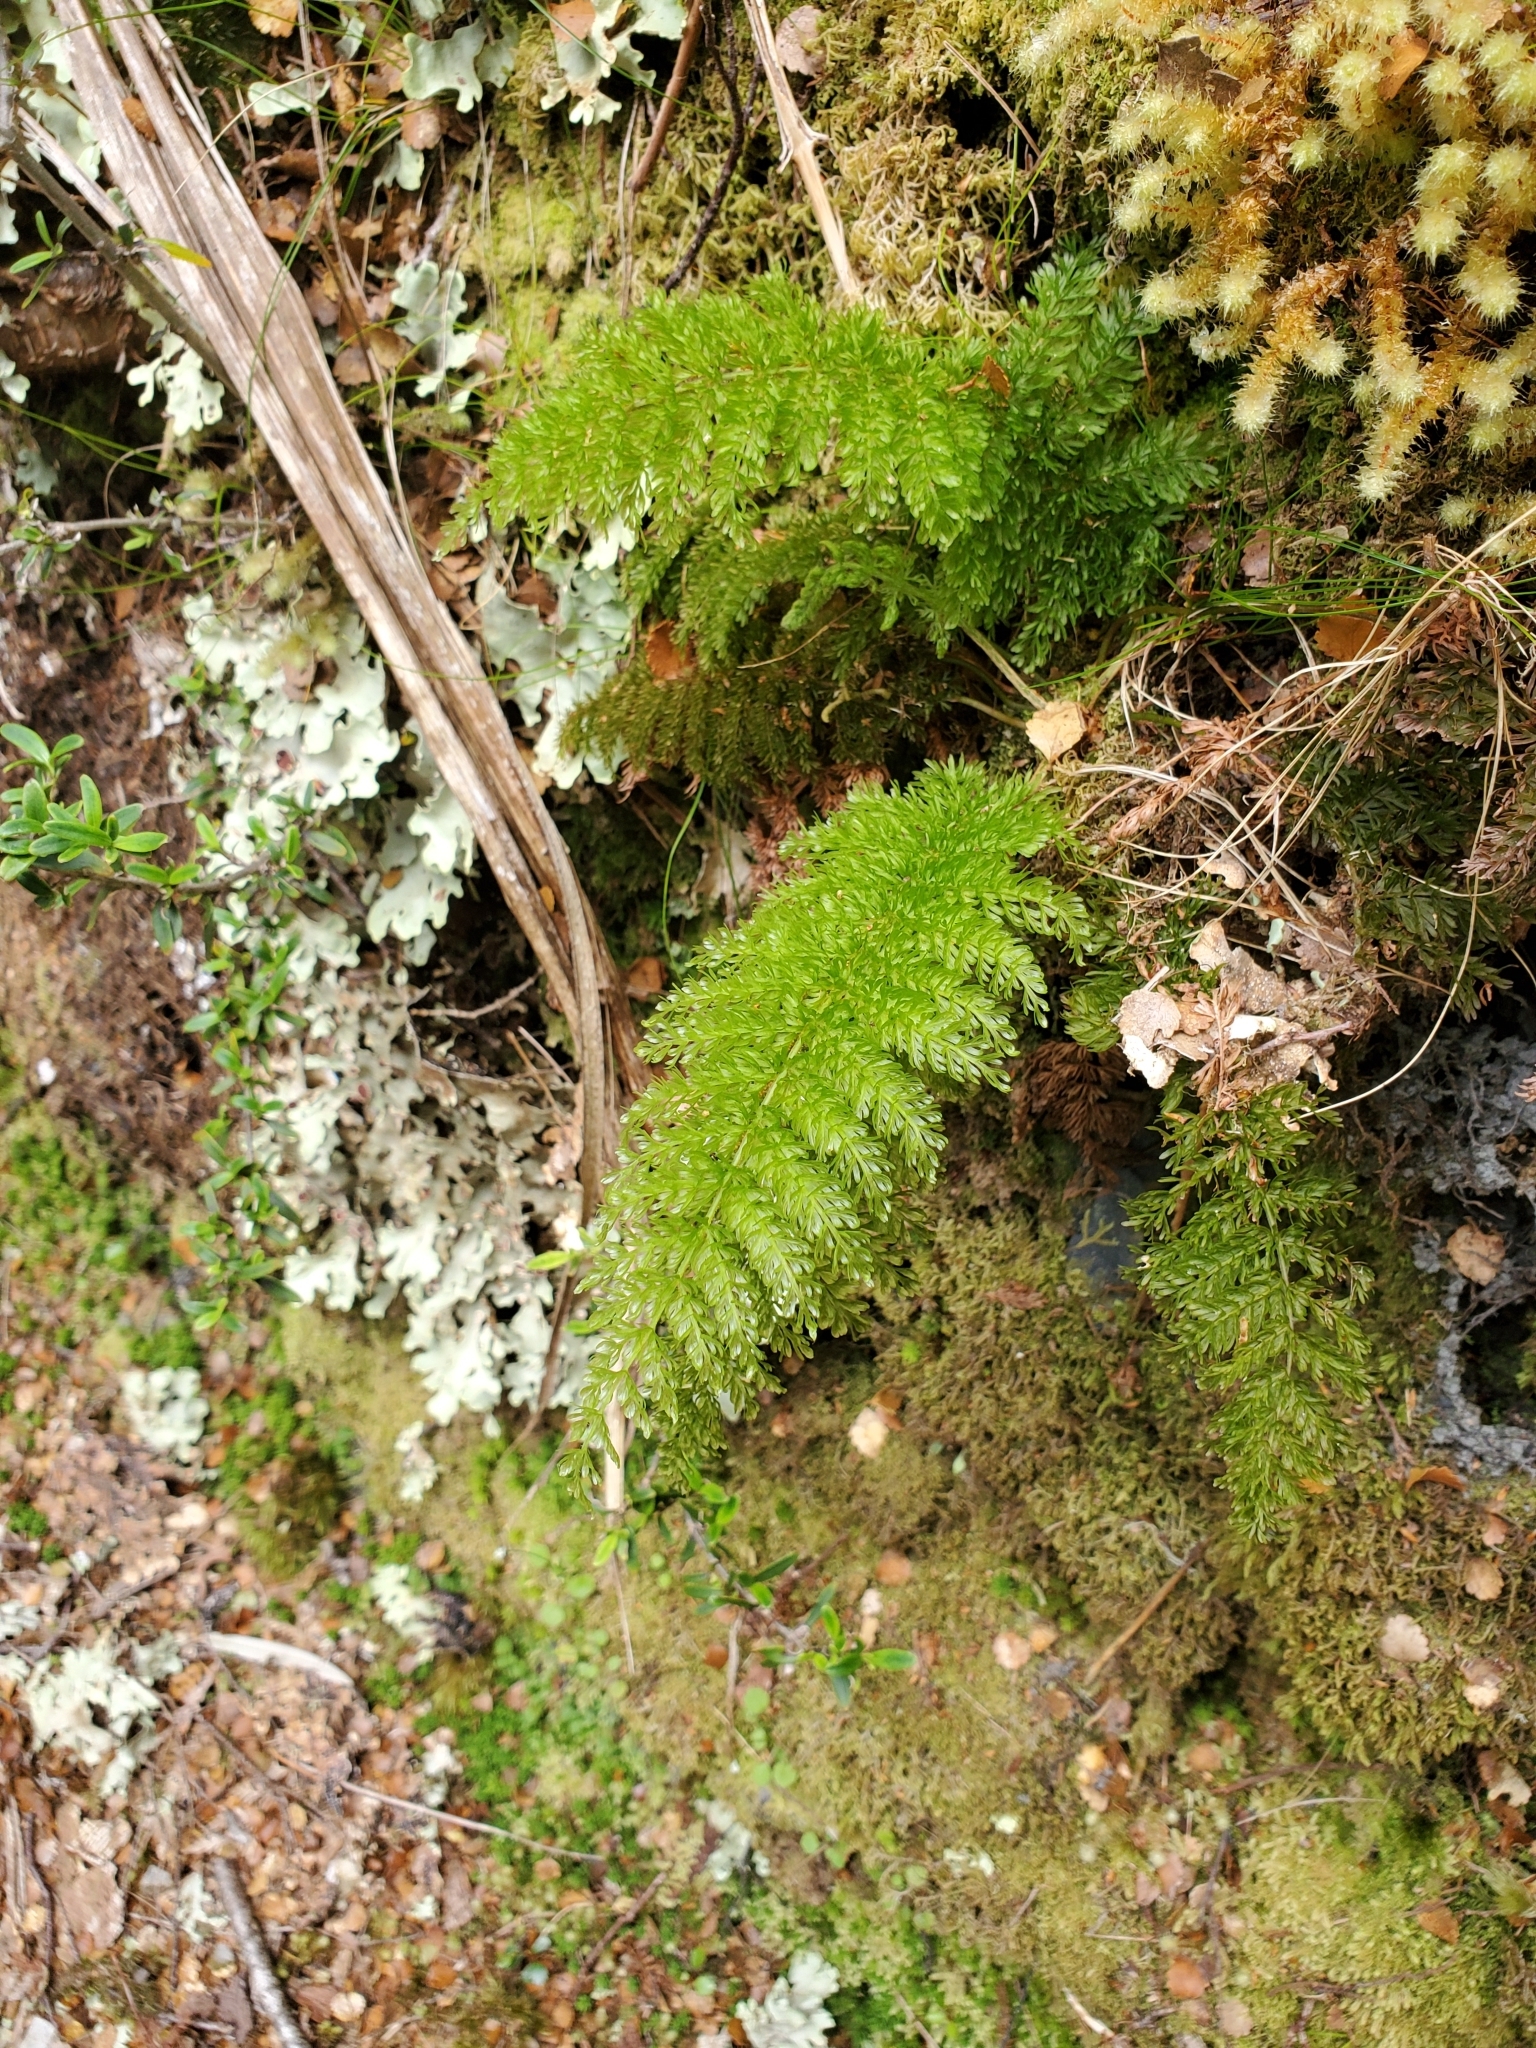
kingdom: Plantae
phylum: Tracheophyta
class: Polypodiopsida
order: Osmundales
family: Osmundaceae
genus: Leptopteris
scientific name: Leptopteris superba
